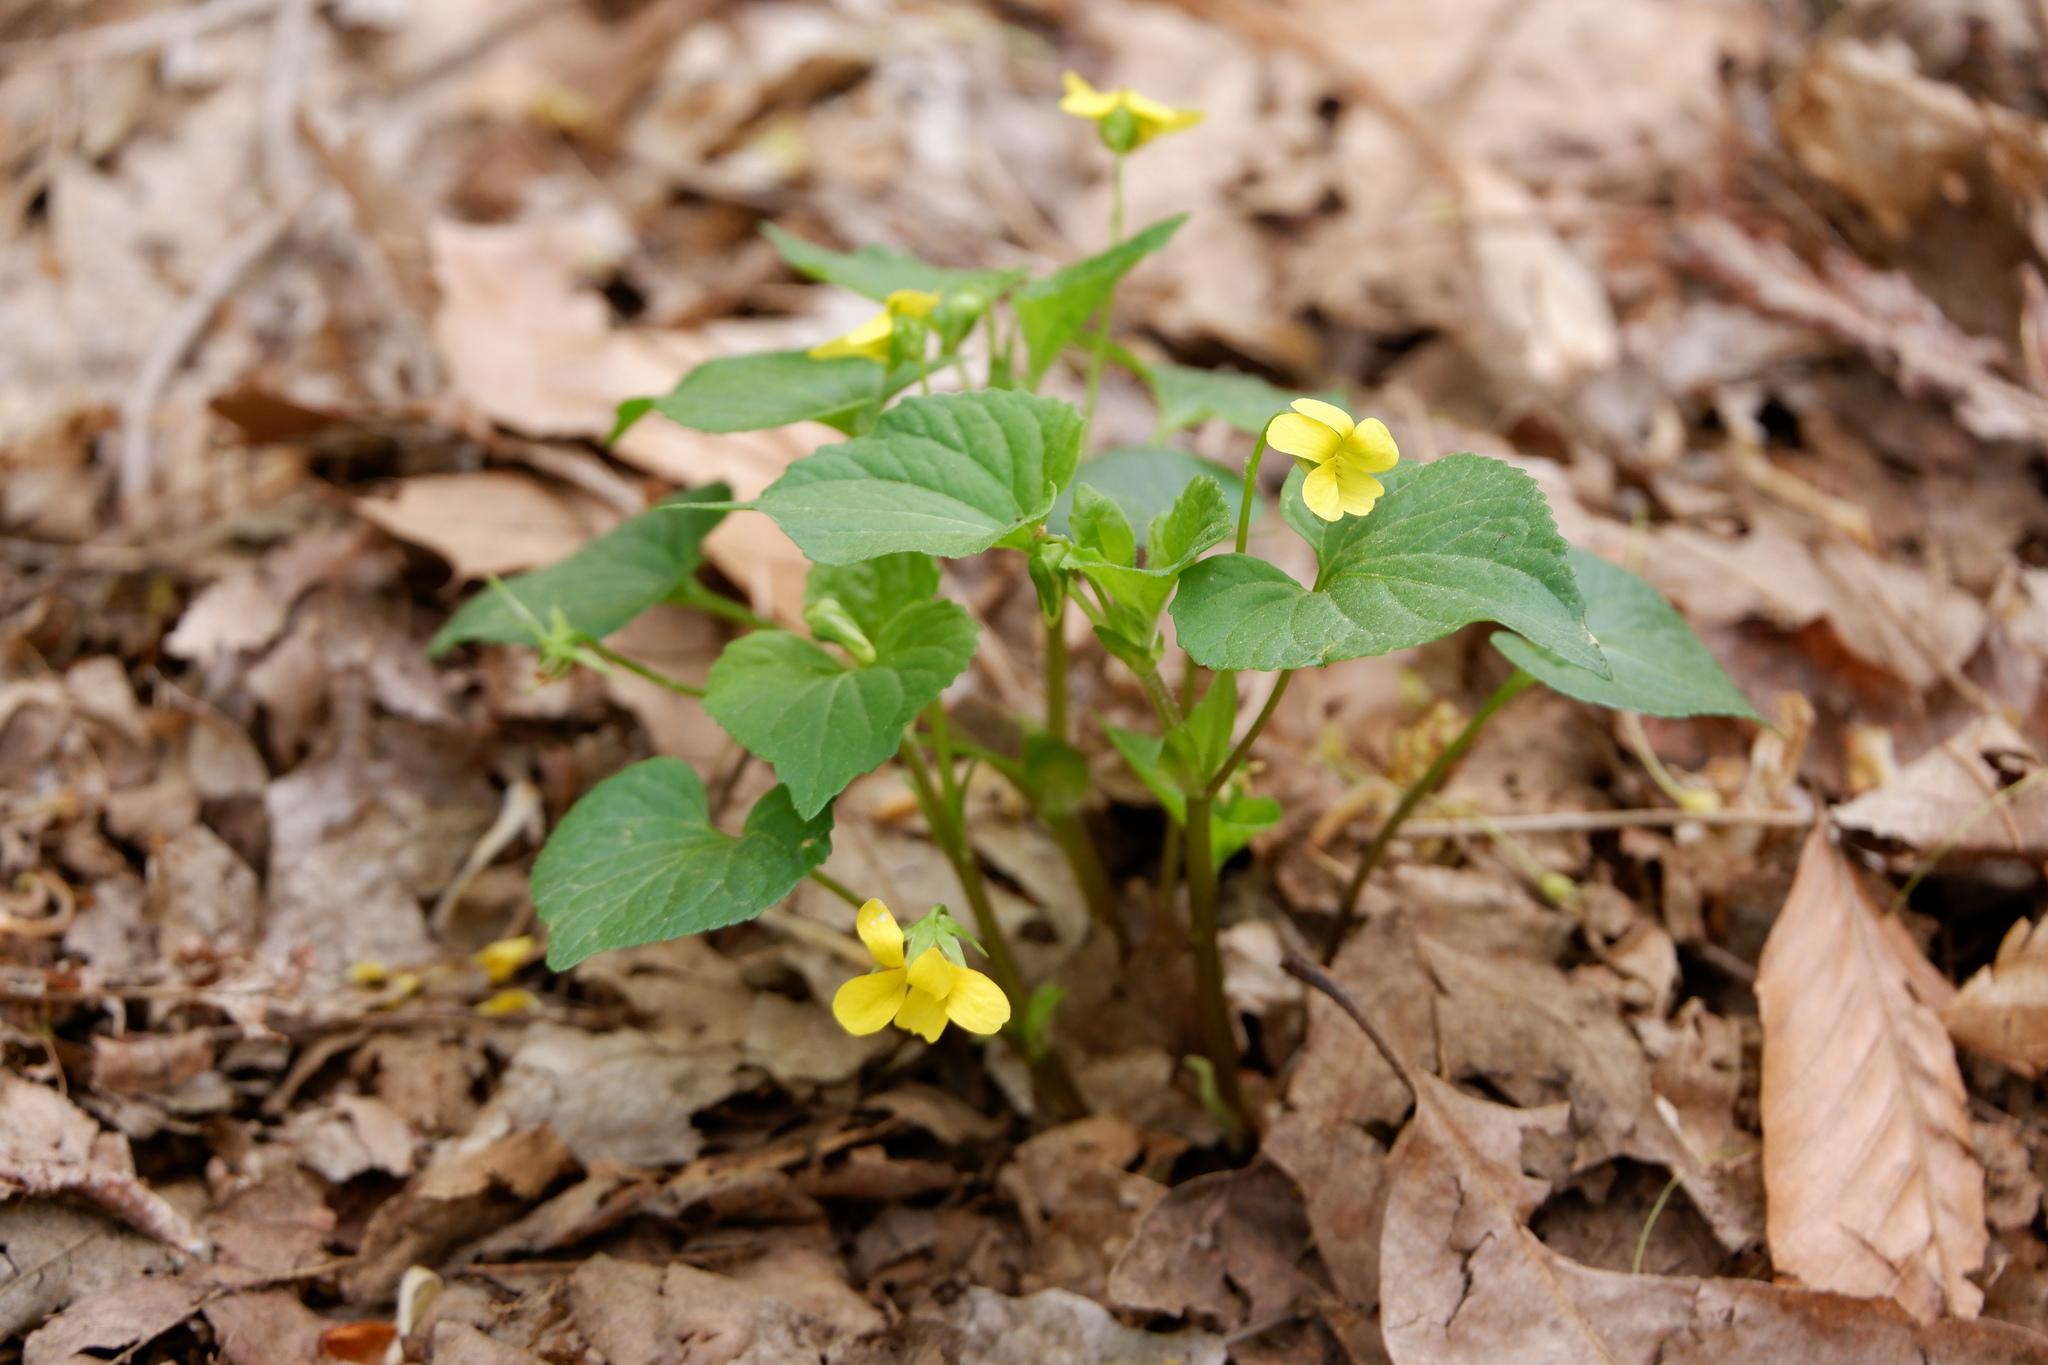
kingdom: Plantae
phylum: Tracheophyta
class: Magnoliopsida
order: Malpighiales
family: Violaceae
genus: Viola
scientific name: Viola eriocarpa
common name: Smooth yellow violet
